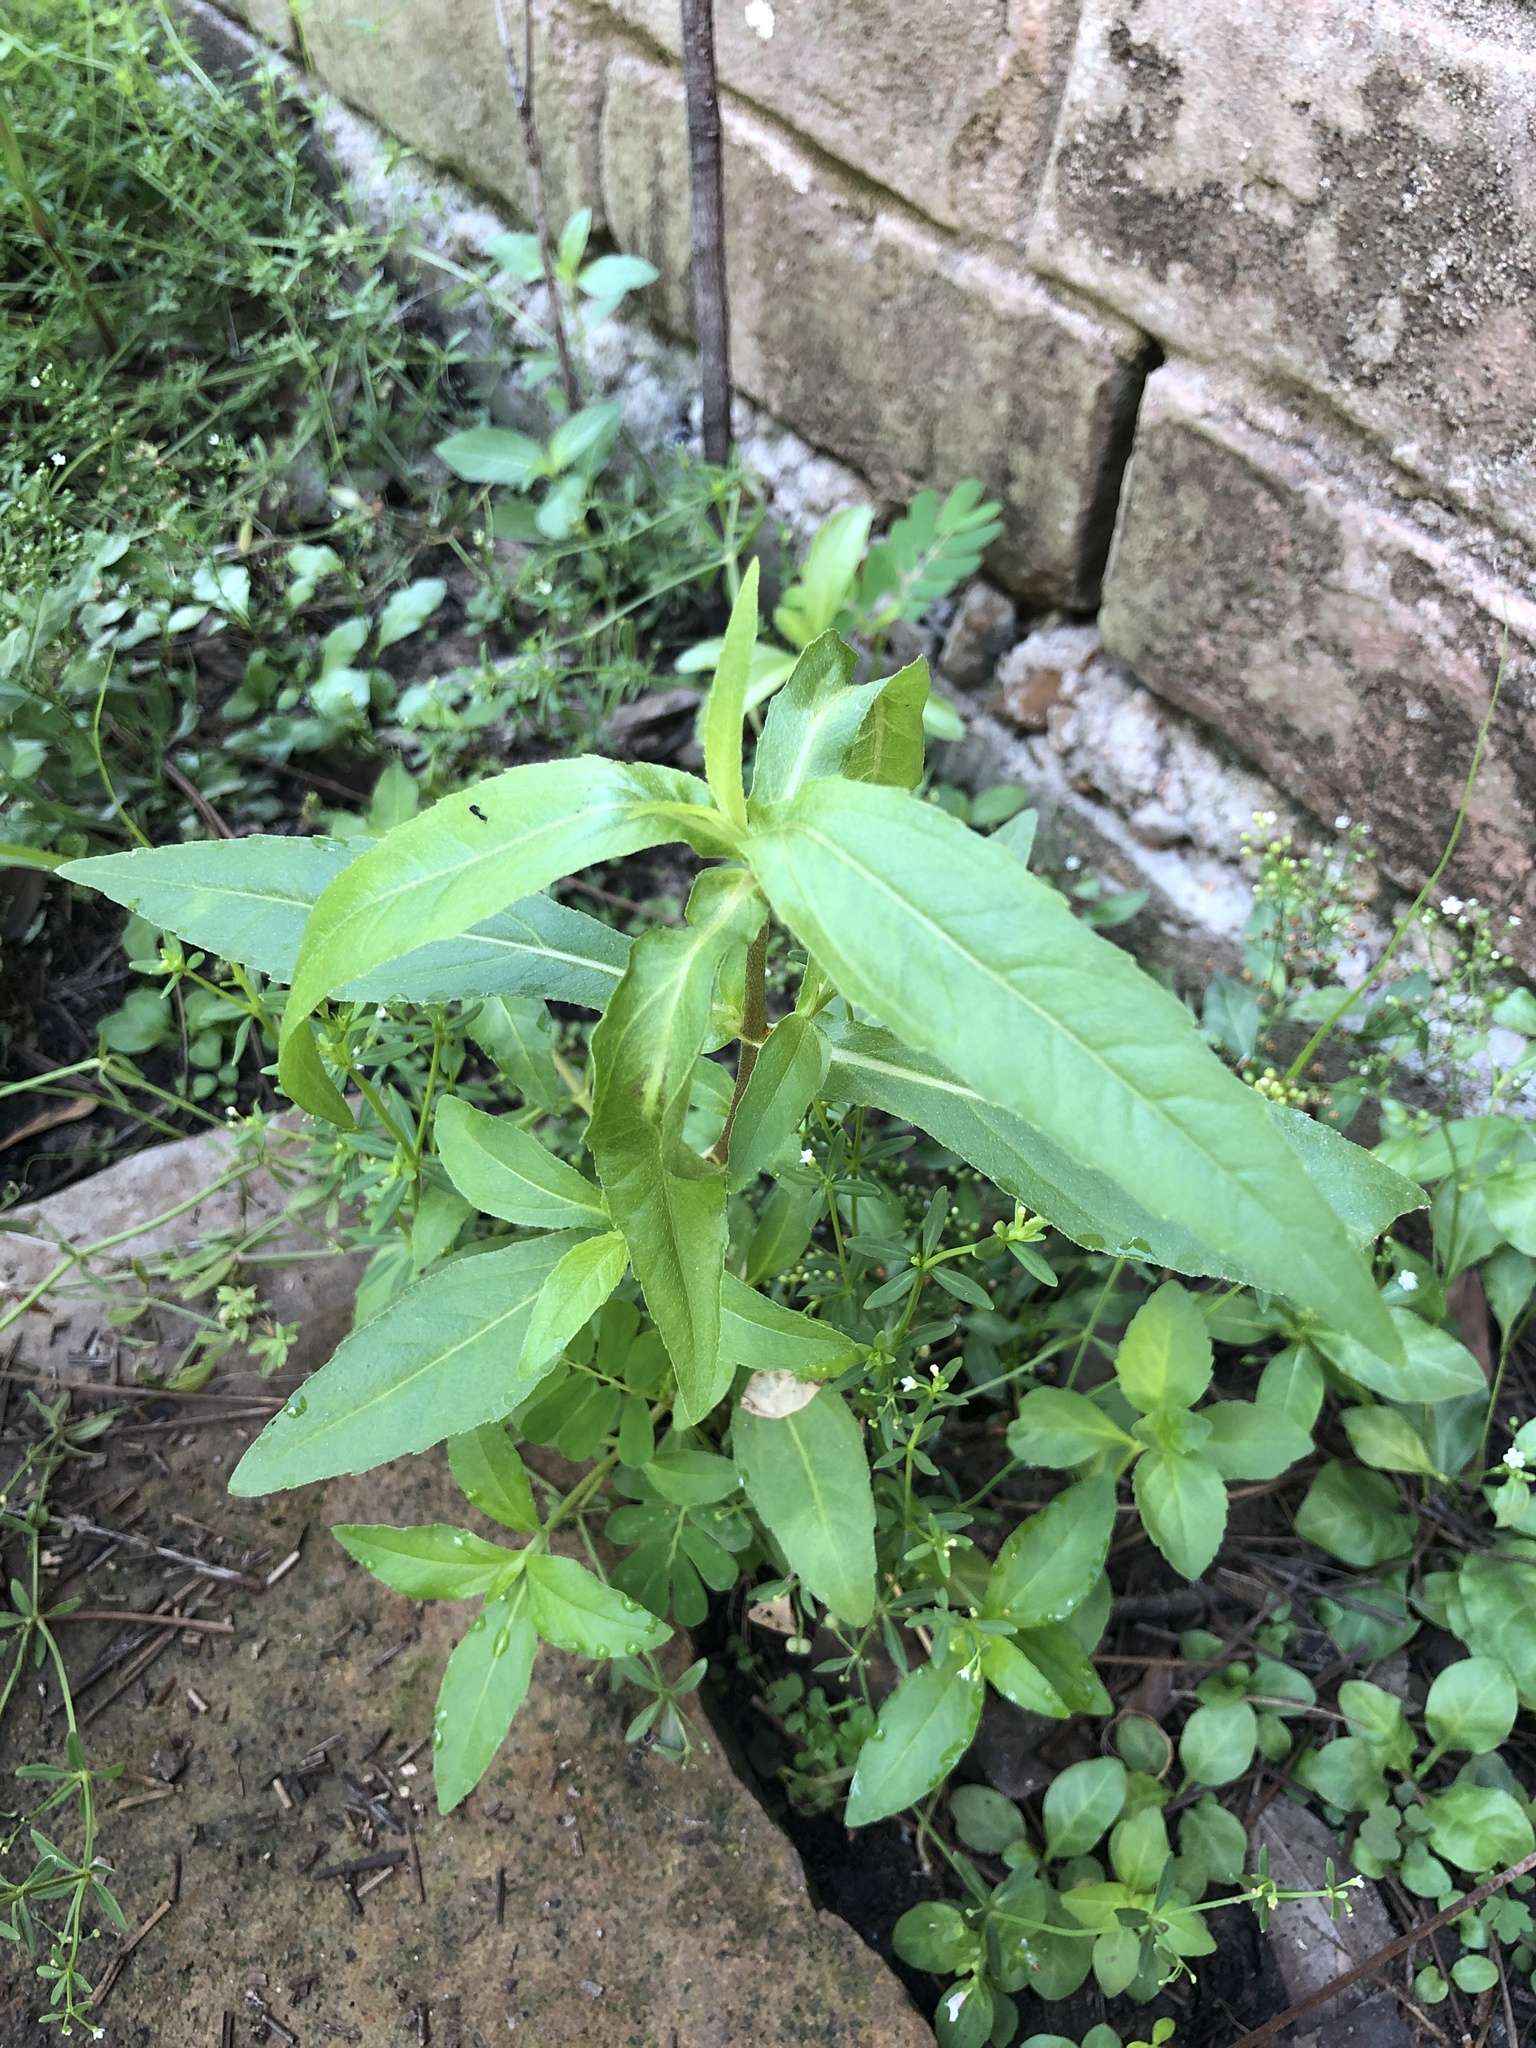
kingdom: Plantae
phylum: Tracheophyta
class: Magnoliopsida
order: Asterales
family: Asteraceae
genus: Eclipta
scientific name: Eclipta prostrata
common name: False daisy
